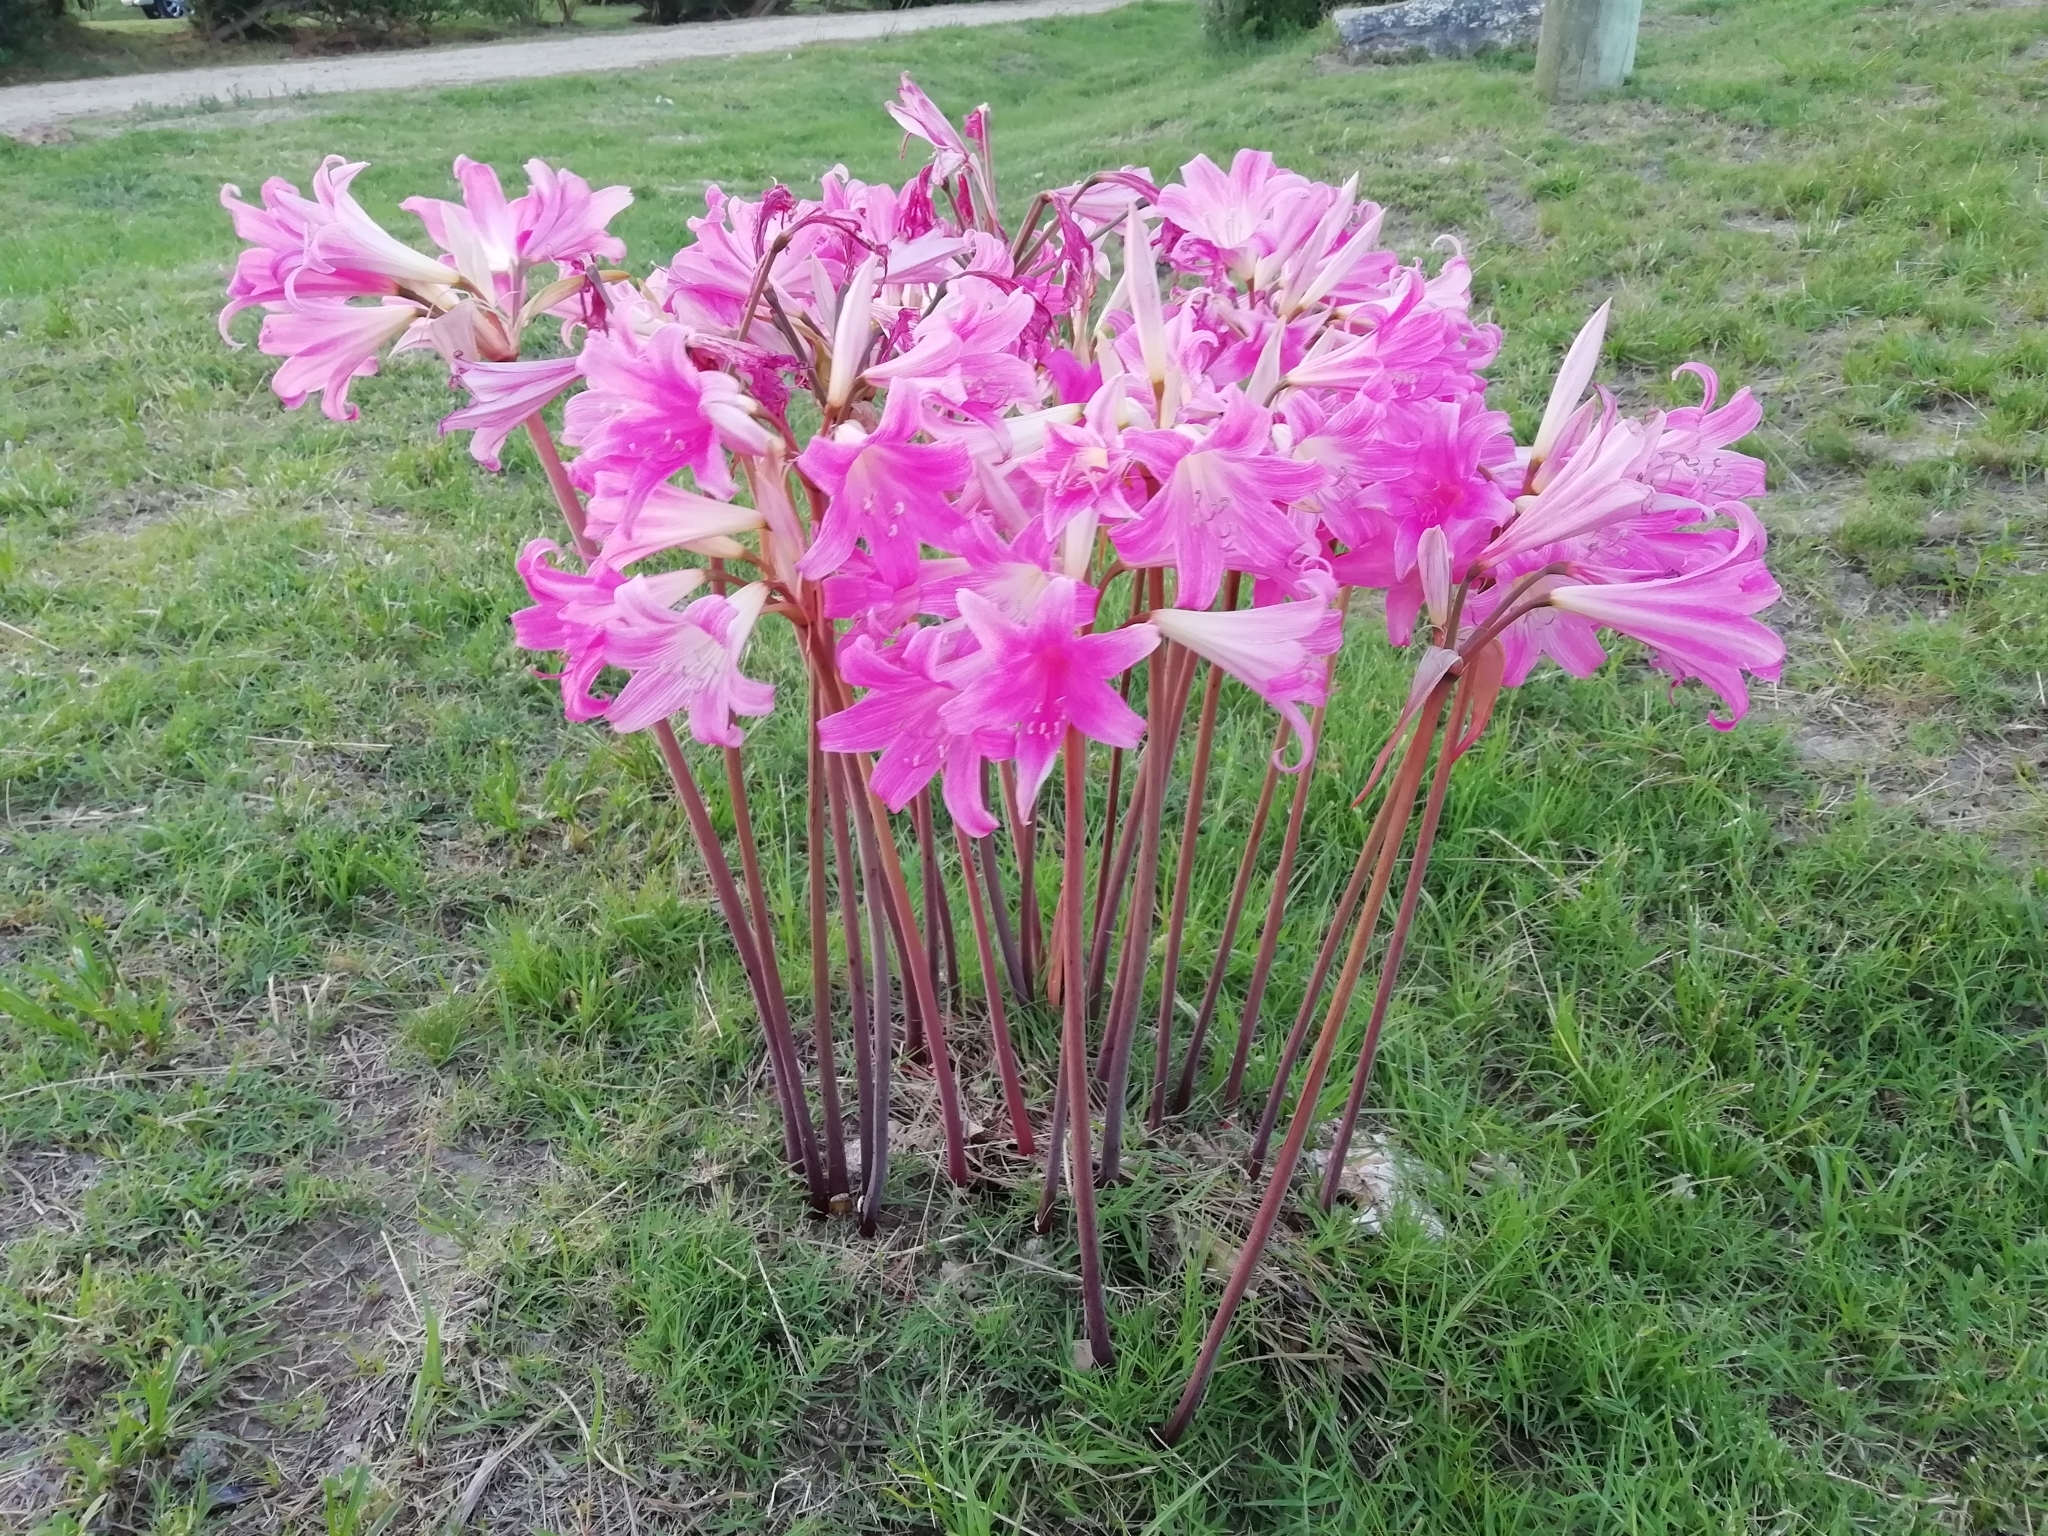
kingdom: Plantae
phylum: Tracheophyta
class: Liliopsida
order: Asparagales
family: Amaryllidaceae
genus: Amaryllis
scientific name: Amaryllis belladonna
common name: Jersey lily
